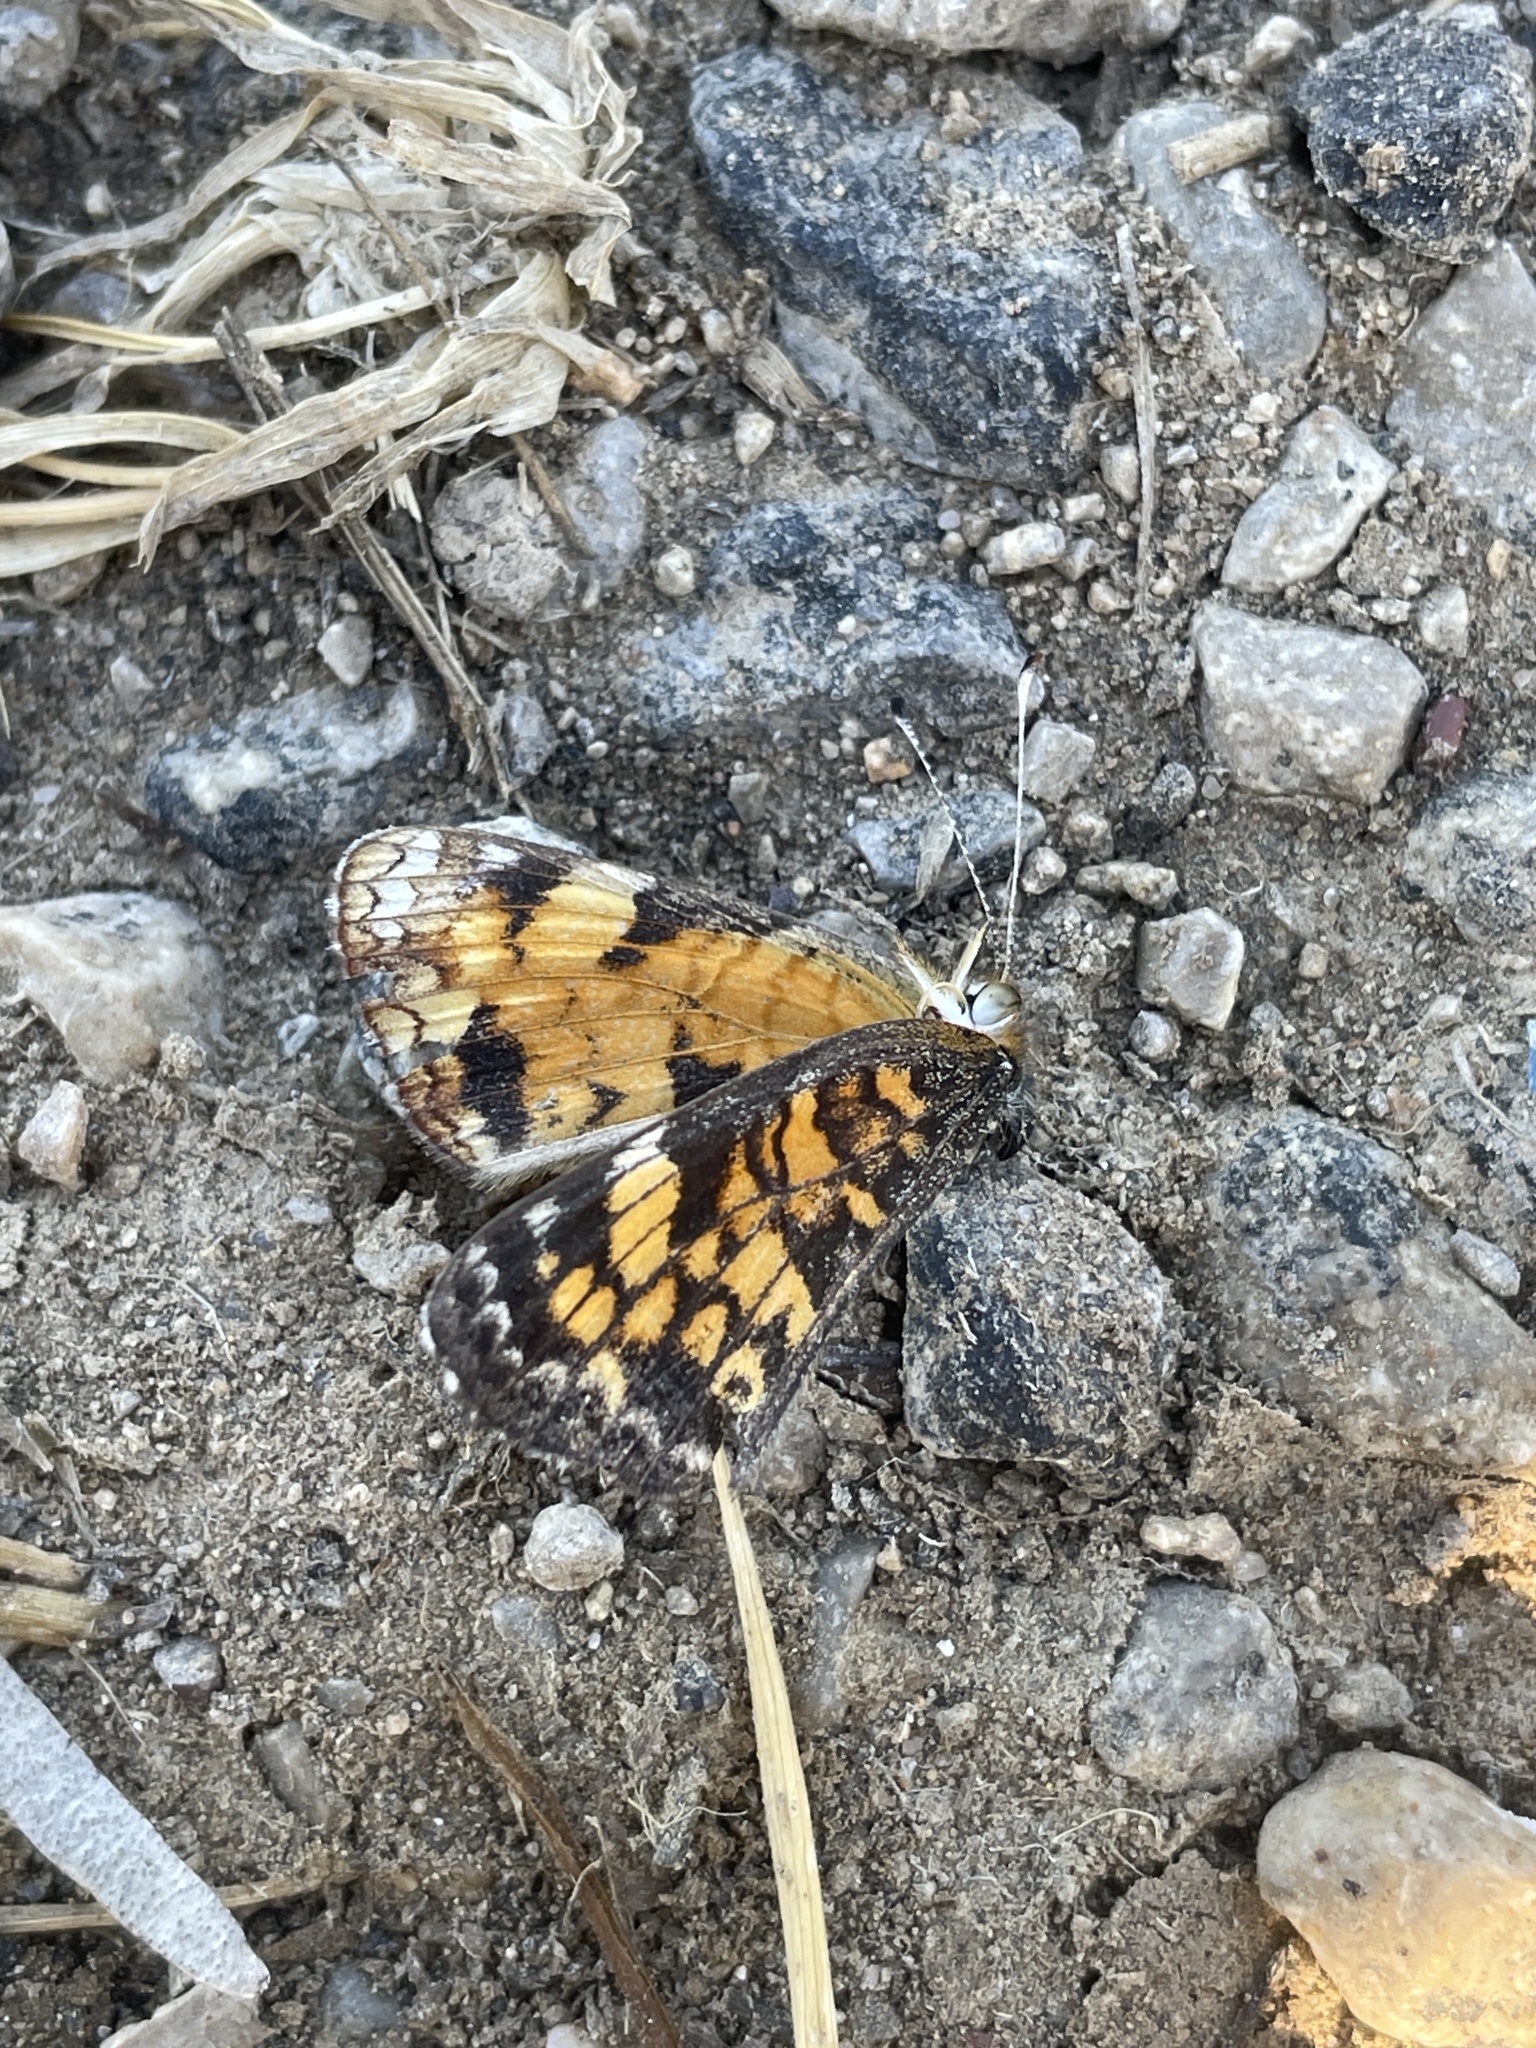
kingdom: Animalia
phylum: Arthropoda
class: Insecta
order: Lepidoptera
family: Nymphalidae
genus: Phyciodes
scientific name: Phyciodes tharos
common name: Pearl crescent
